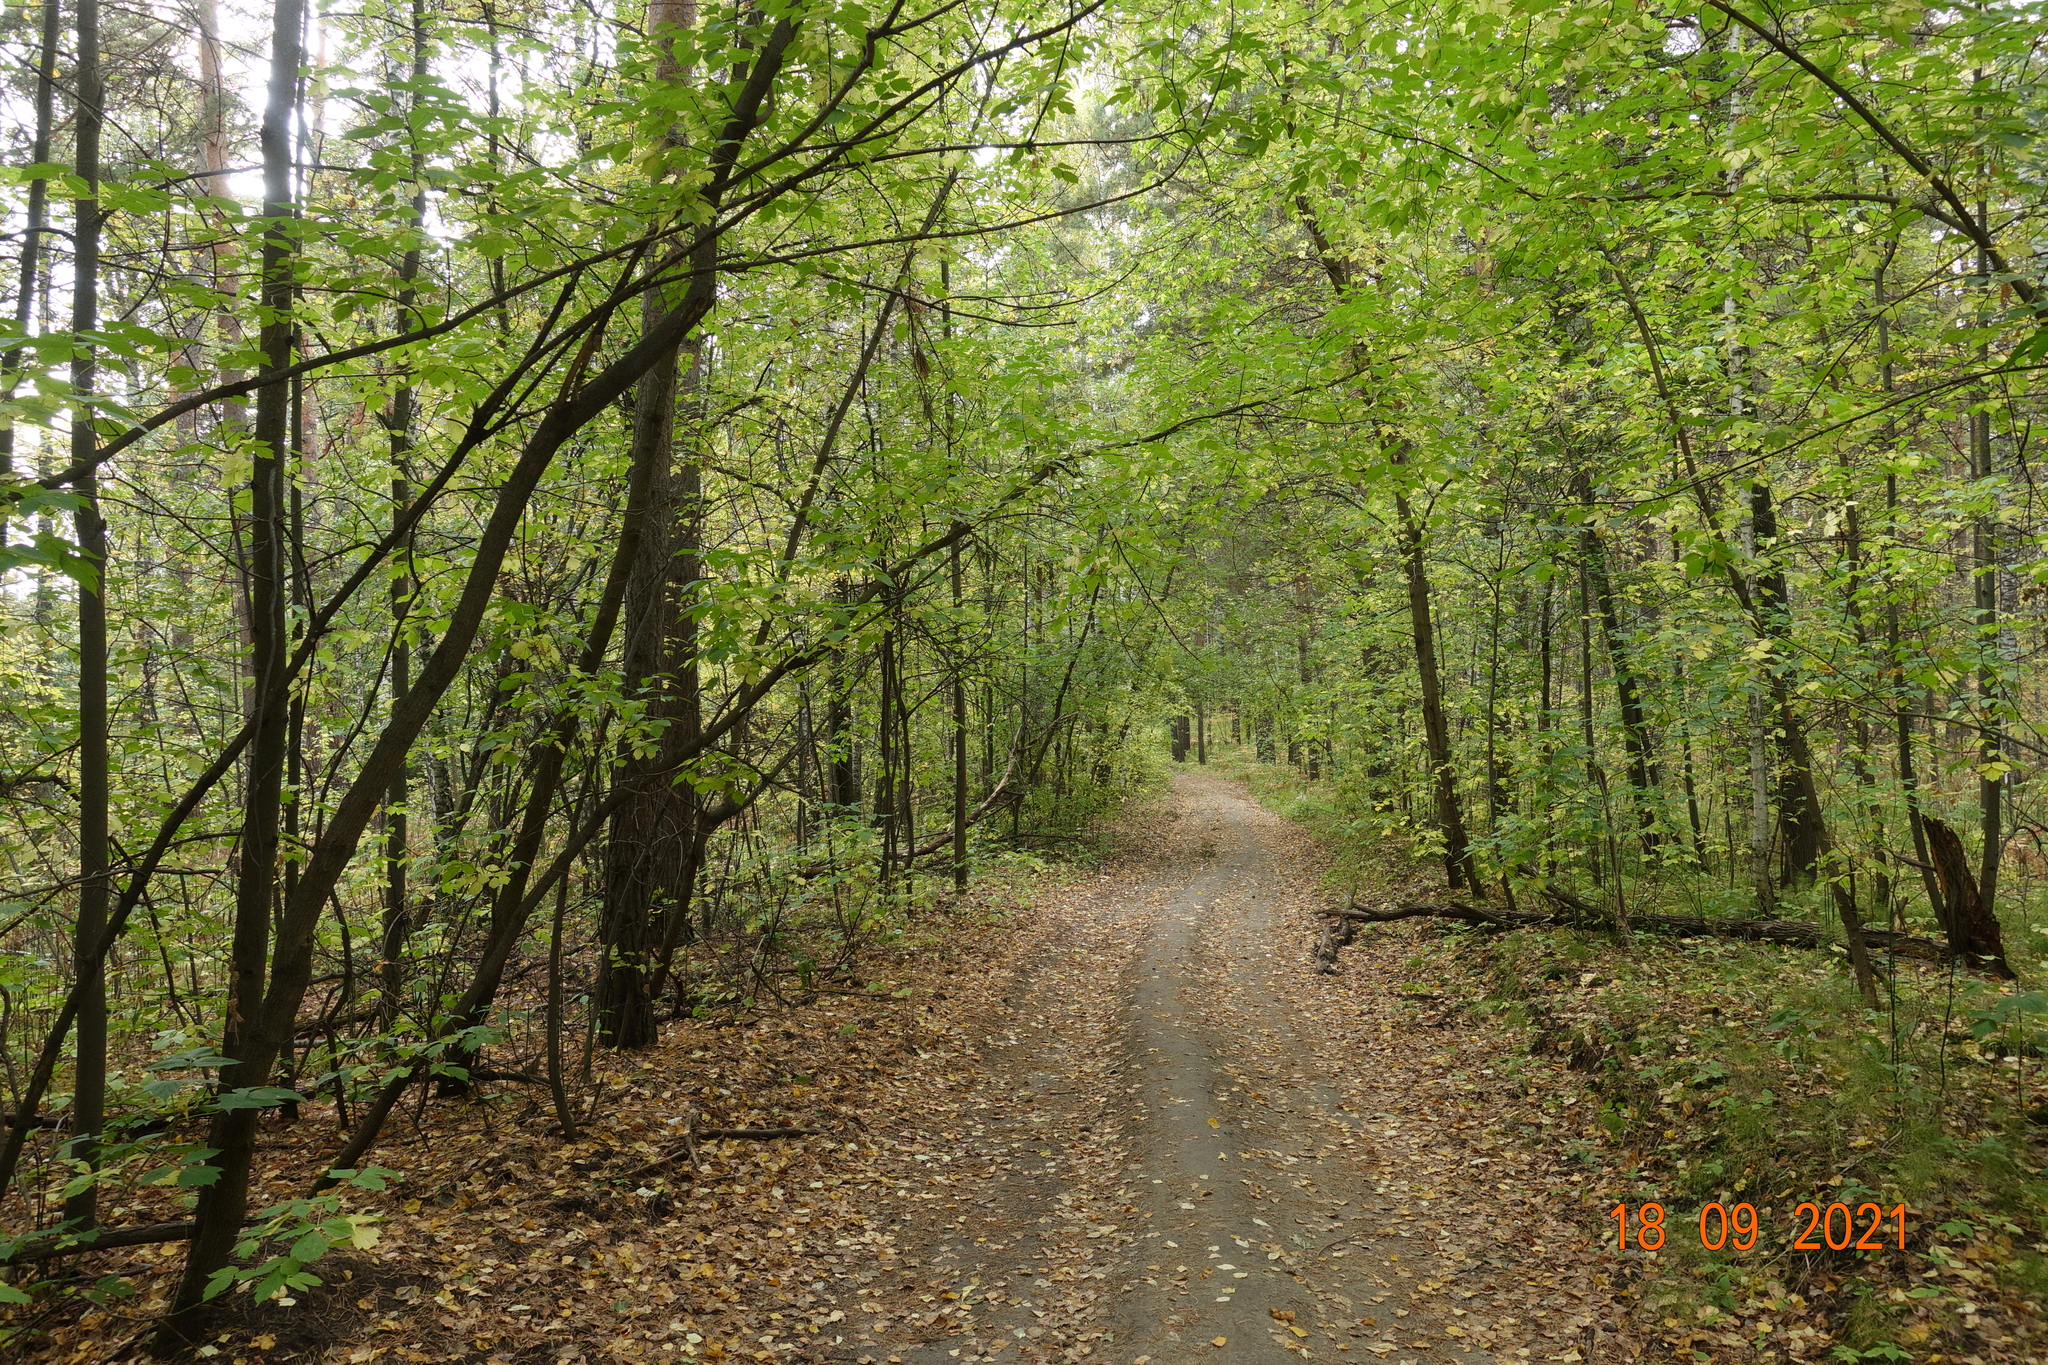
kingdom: Plantae
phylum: Tracheophyta
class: Magnoliopsida
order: Sapindales
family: Sapindaceae
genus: Acer
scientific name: Acer negundo
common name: Ashleaf maple
